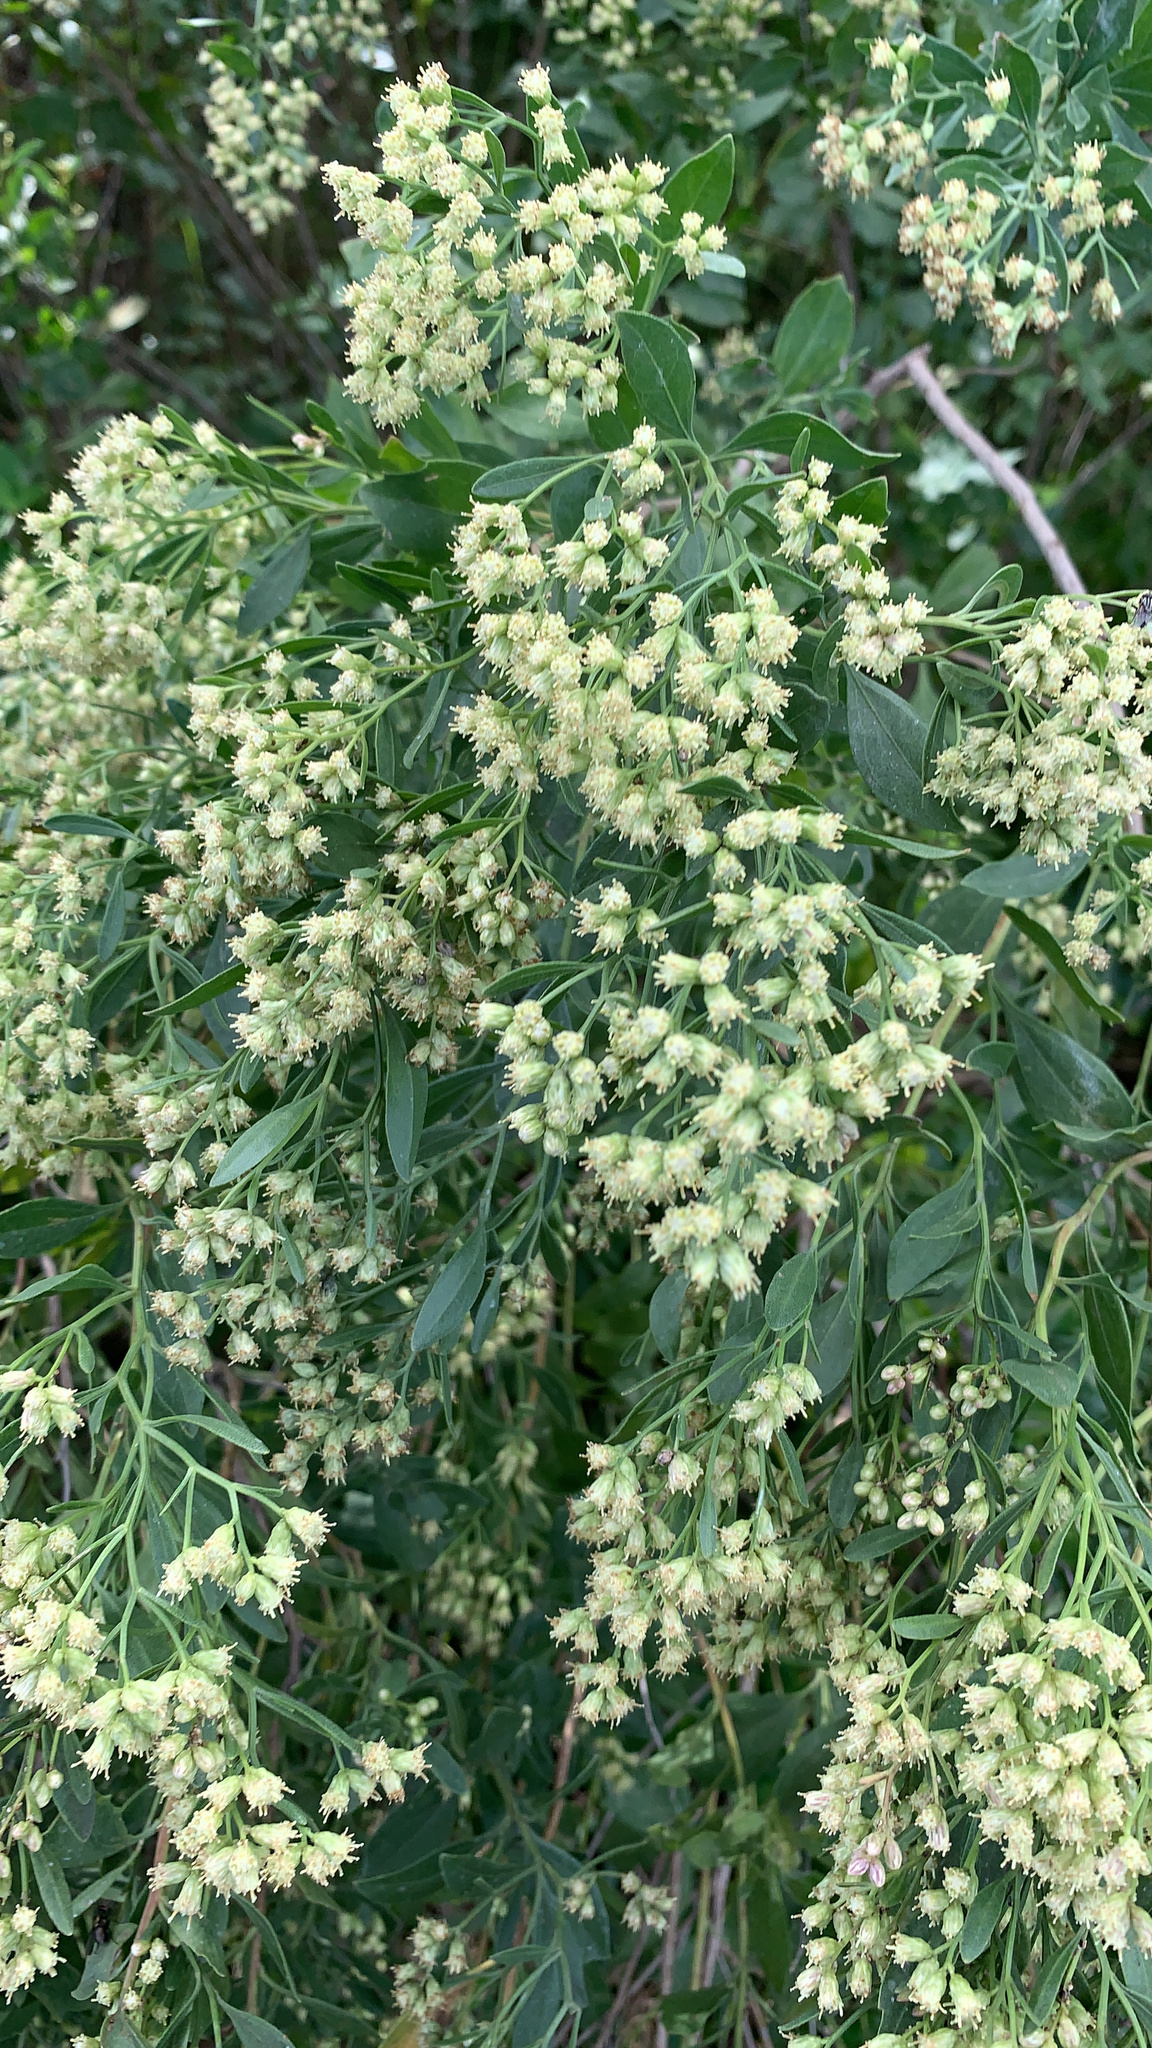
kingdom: Plantae
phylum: Tracheophyta
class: Magnoliopsida
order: Asterales
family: Asteraceae
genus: Baccharis
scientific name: Baccharis halimifolia
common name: Eastern baccharis
